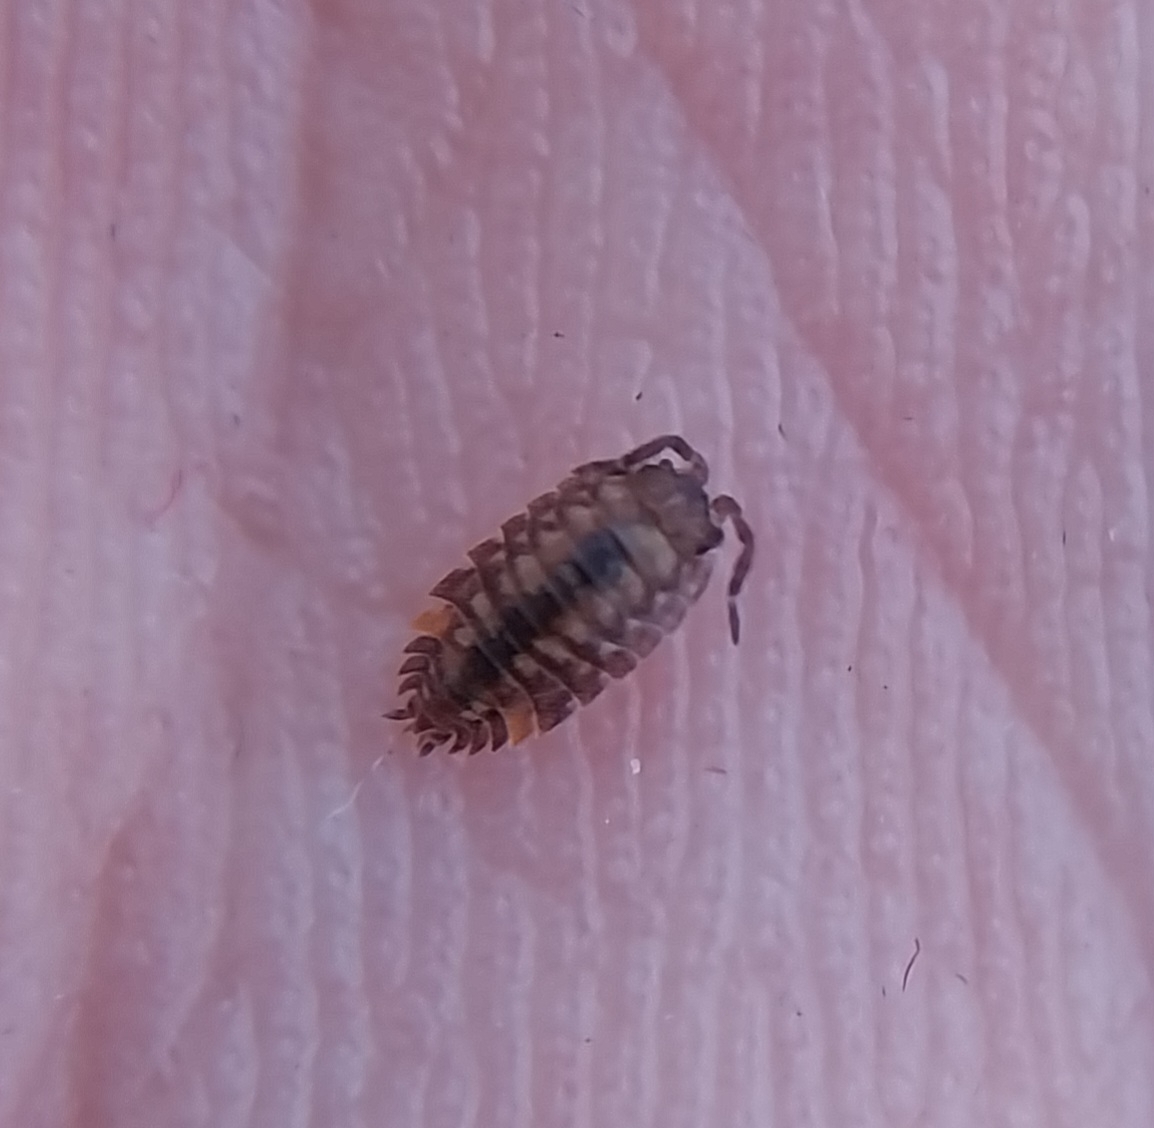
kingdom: Animalia
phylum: Arthropoda
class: Malacostraca
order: Isopoda
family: Oniscidae
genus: Oniscus
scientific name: Oniscus asellus
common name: Common shiny woodlouse
